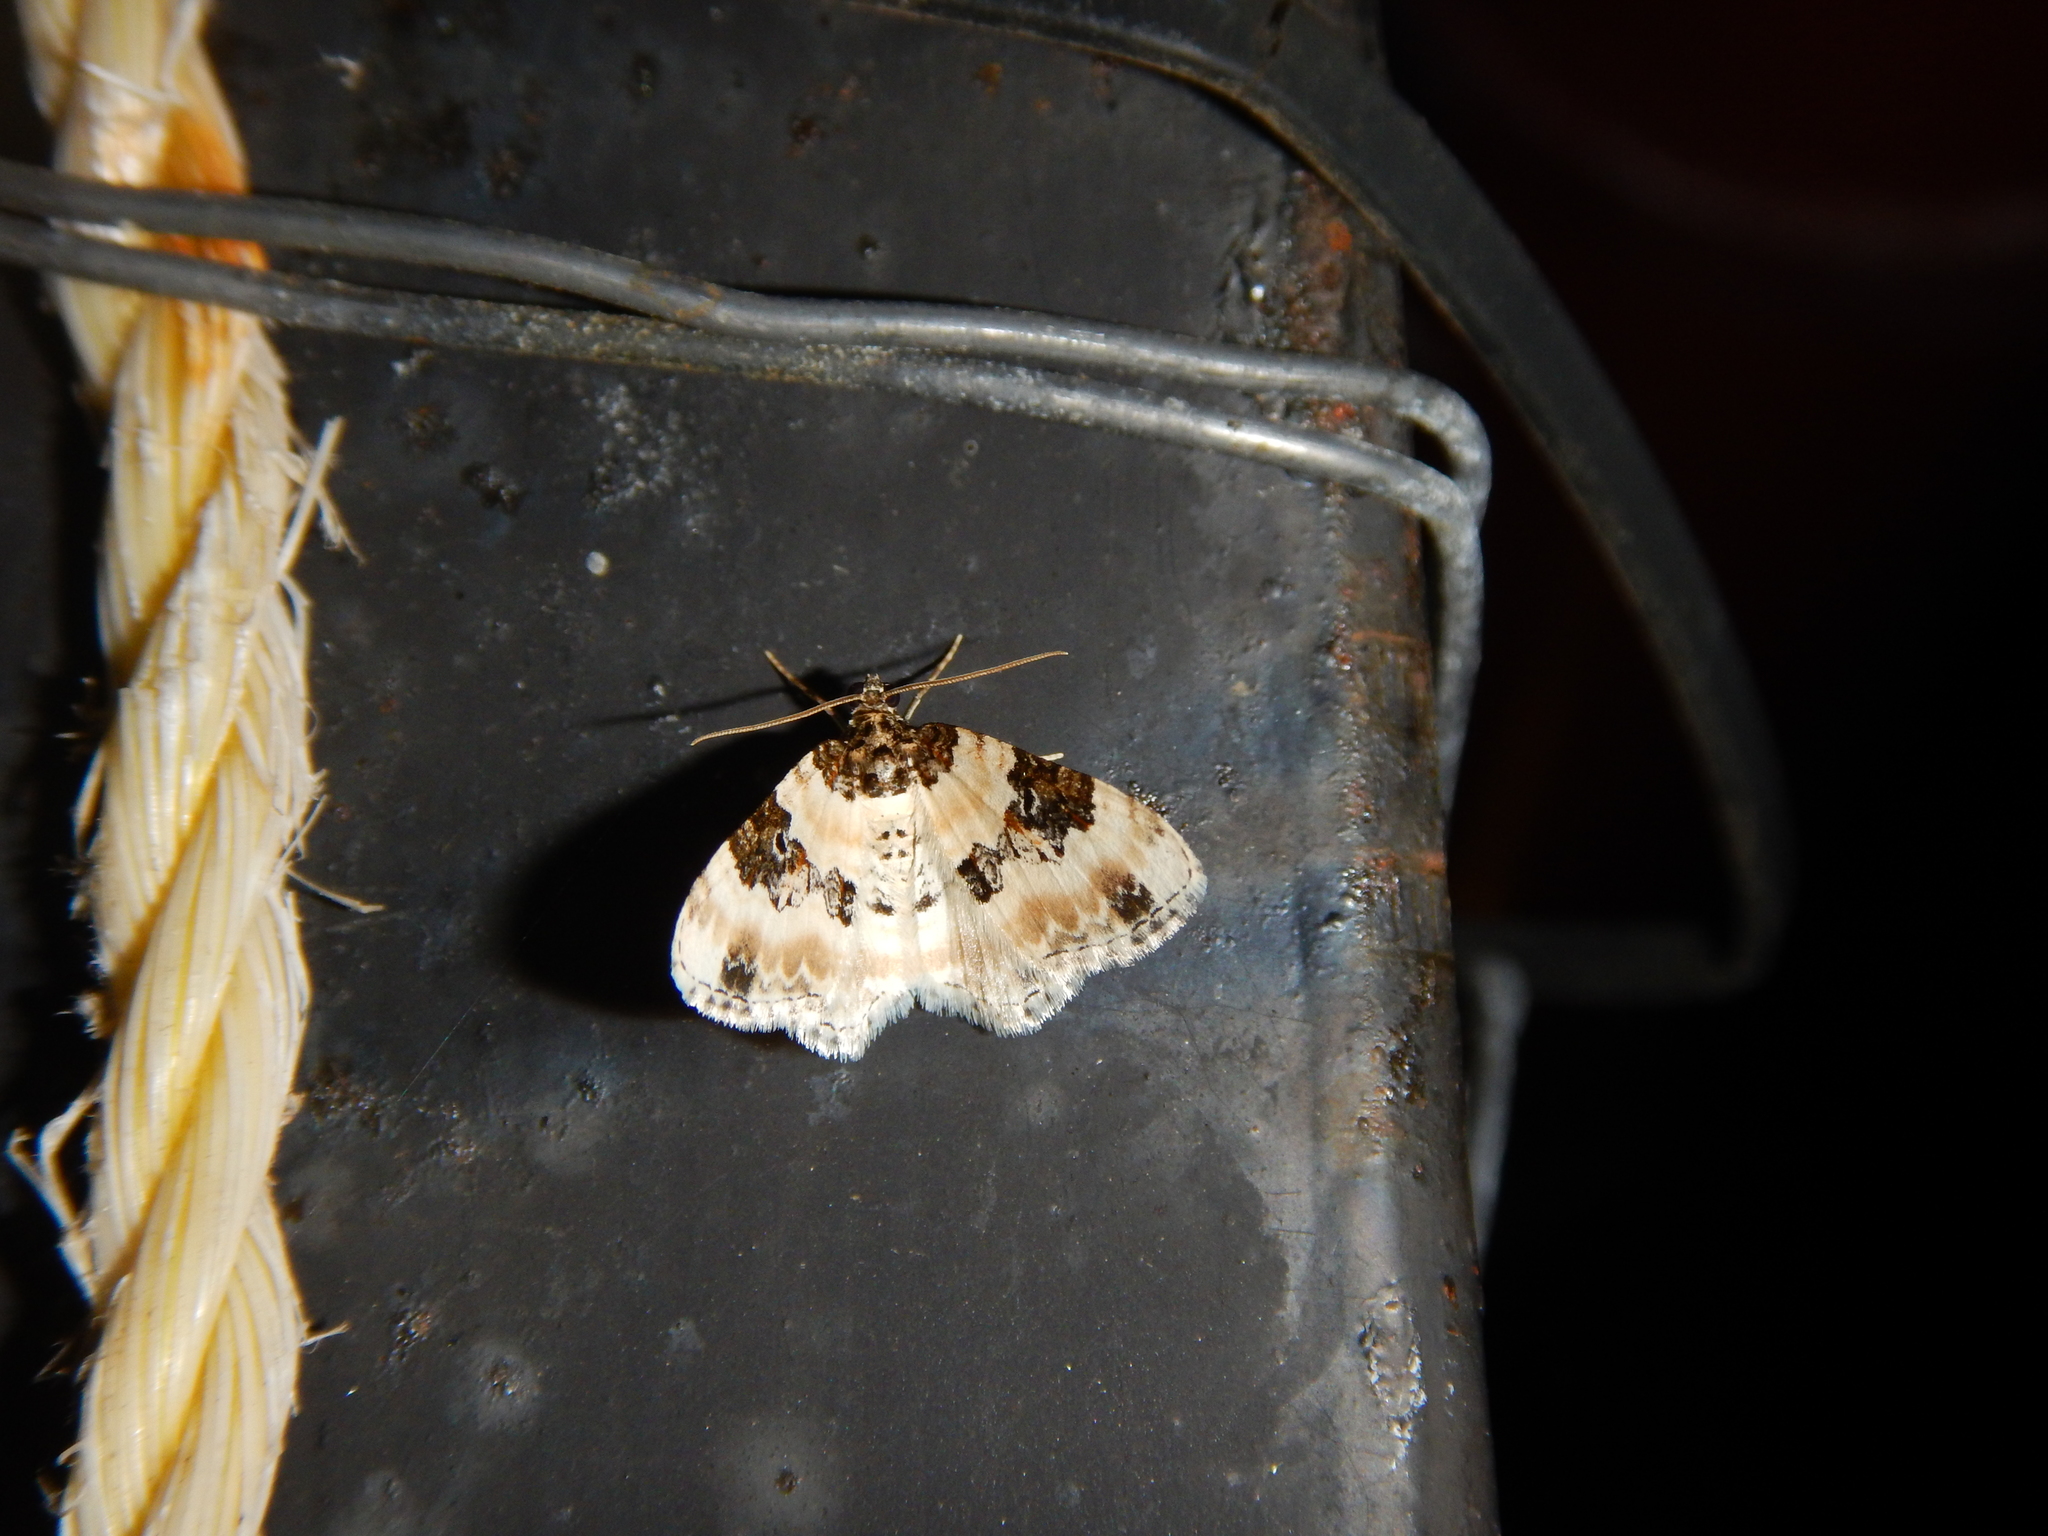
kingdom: Animalia
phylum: Arthropoda
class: Insecta
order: Lepidoptera
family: Geometridae
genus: Cosmorhoe
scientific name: Cosmorhoe ocellata
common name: Purple bar
